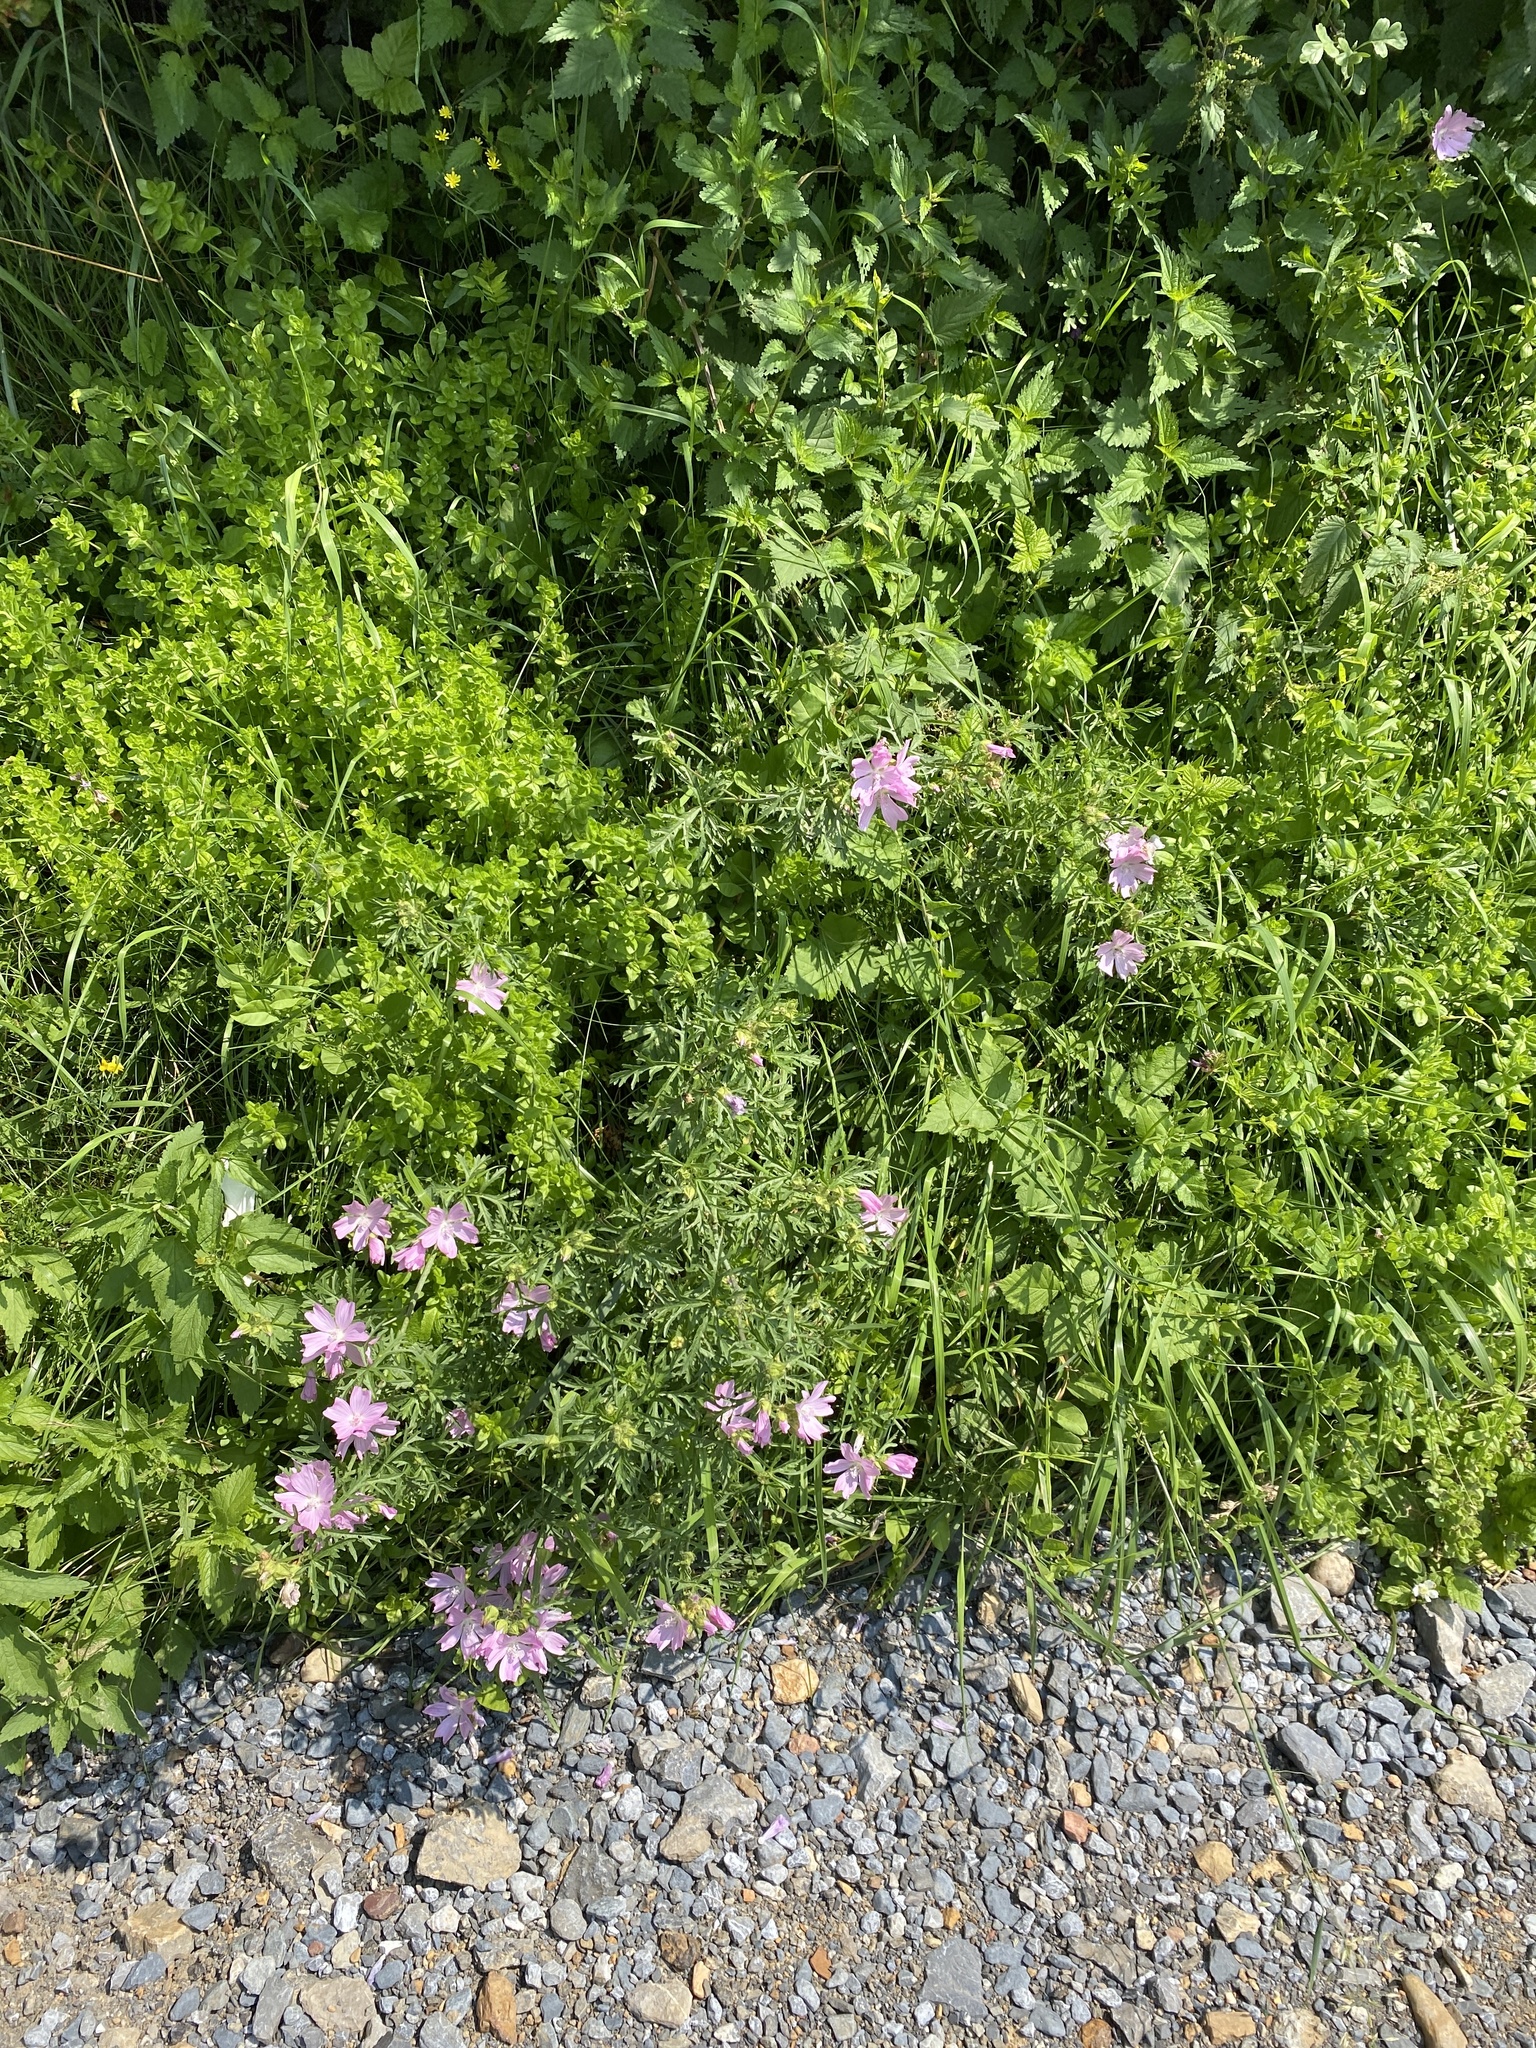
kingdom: Plantae
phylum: Tracheophyta
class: Magnoliopsida
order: Malvales
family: Malvaceae
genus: Malva
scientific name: Malva moschata
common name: Musk mallow
